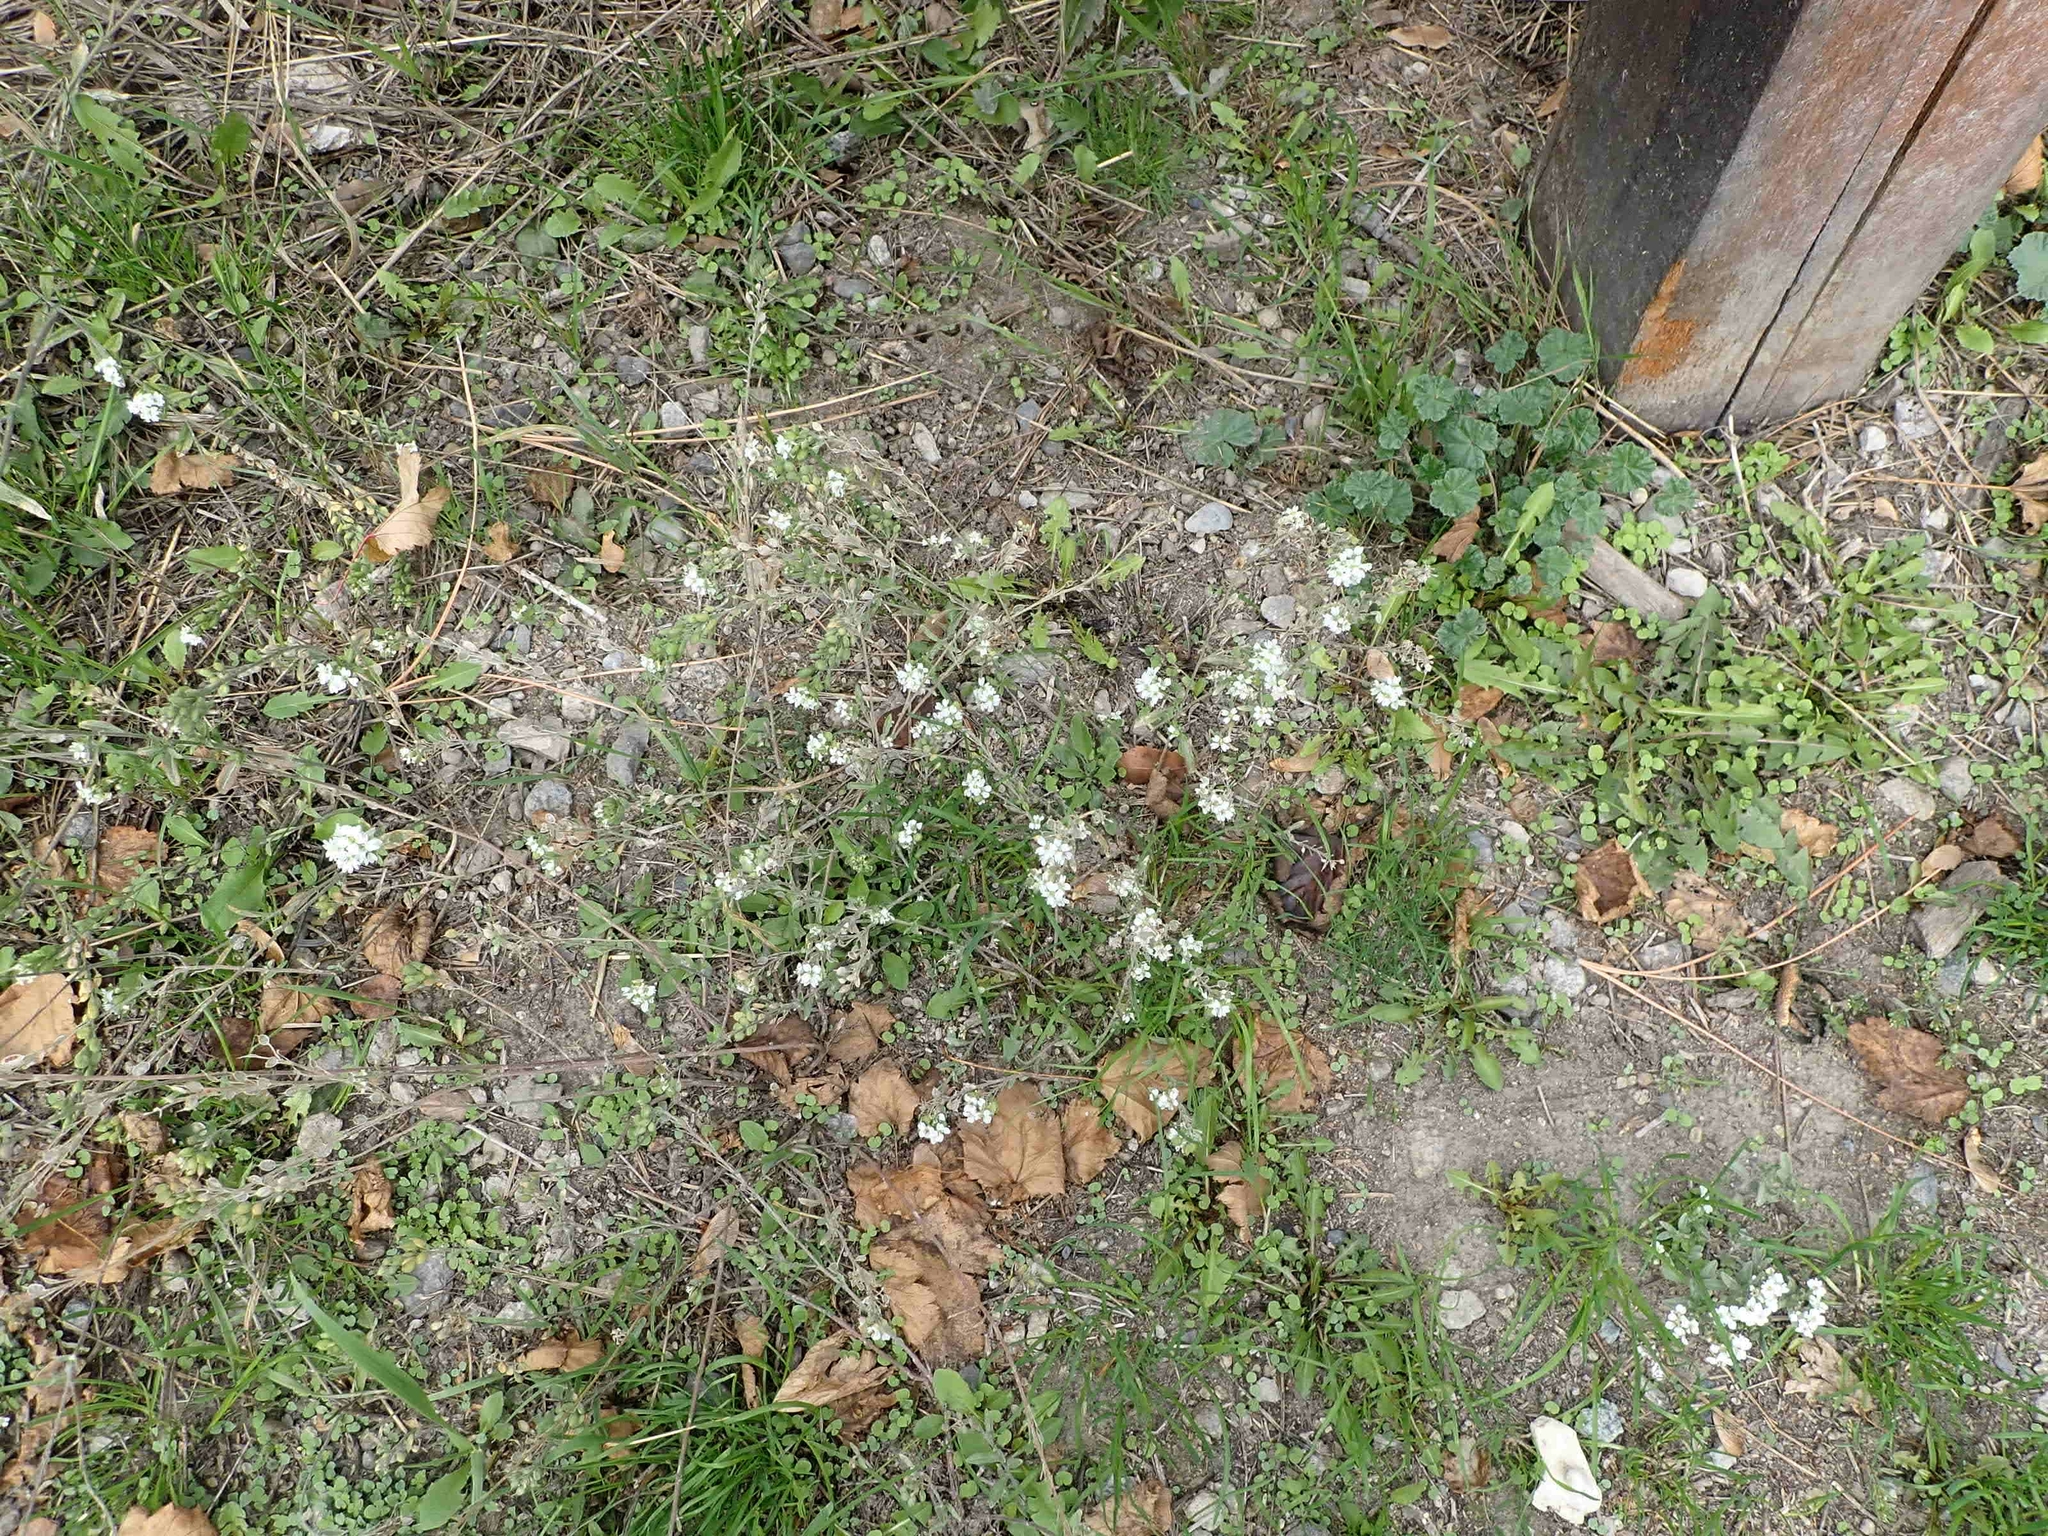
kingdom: Plantae
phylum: Tracheophyta
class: Magnoliopsida
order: Brassicales
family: Brassicaceae
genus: Berteroa
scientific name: Berteroa incana
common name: Hoary alison
